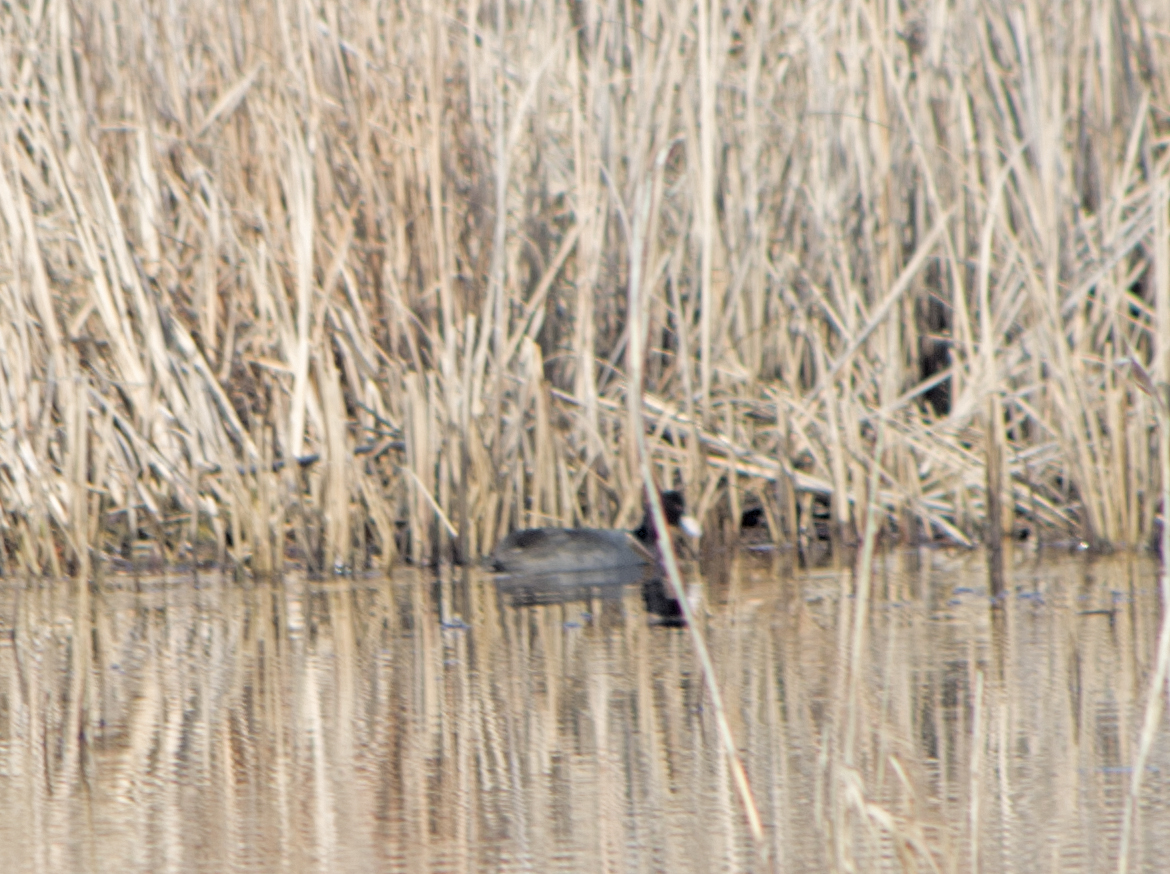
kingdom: Animalia
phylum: Chordata
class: Aves
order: Gruiformes
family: Rallidae
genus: Fulica
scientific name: Fulica atra
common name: Eurasian coot
